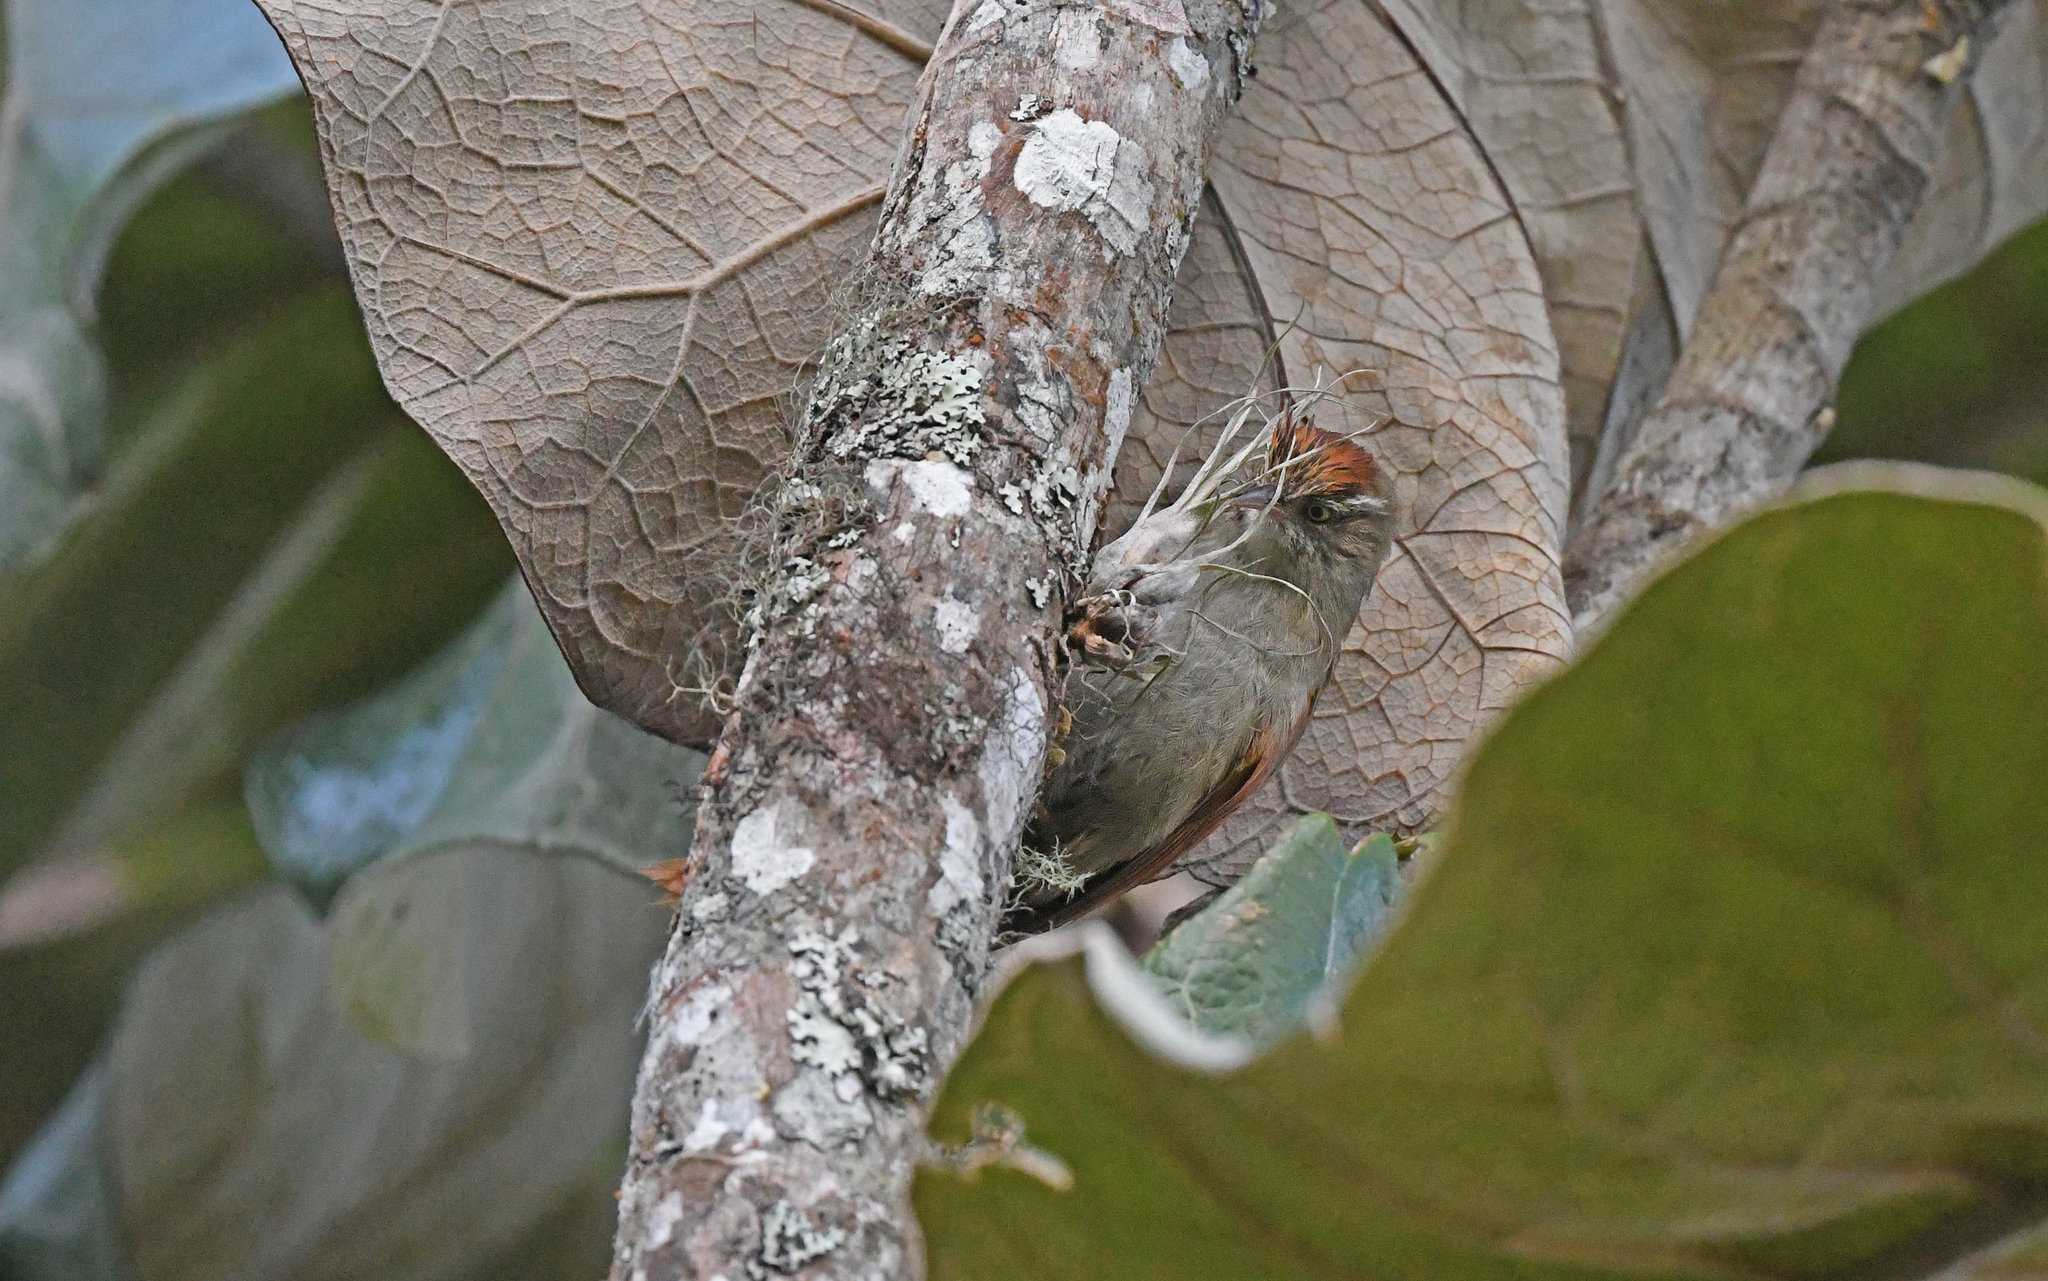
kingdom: Animalia
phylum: Chordata
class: Aves
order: Passeriformes
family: Furnariidae
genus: Cranioleuca
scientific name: Cranioleuca hellmayri
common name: Streak-capped spinetail
